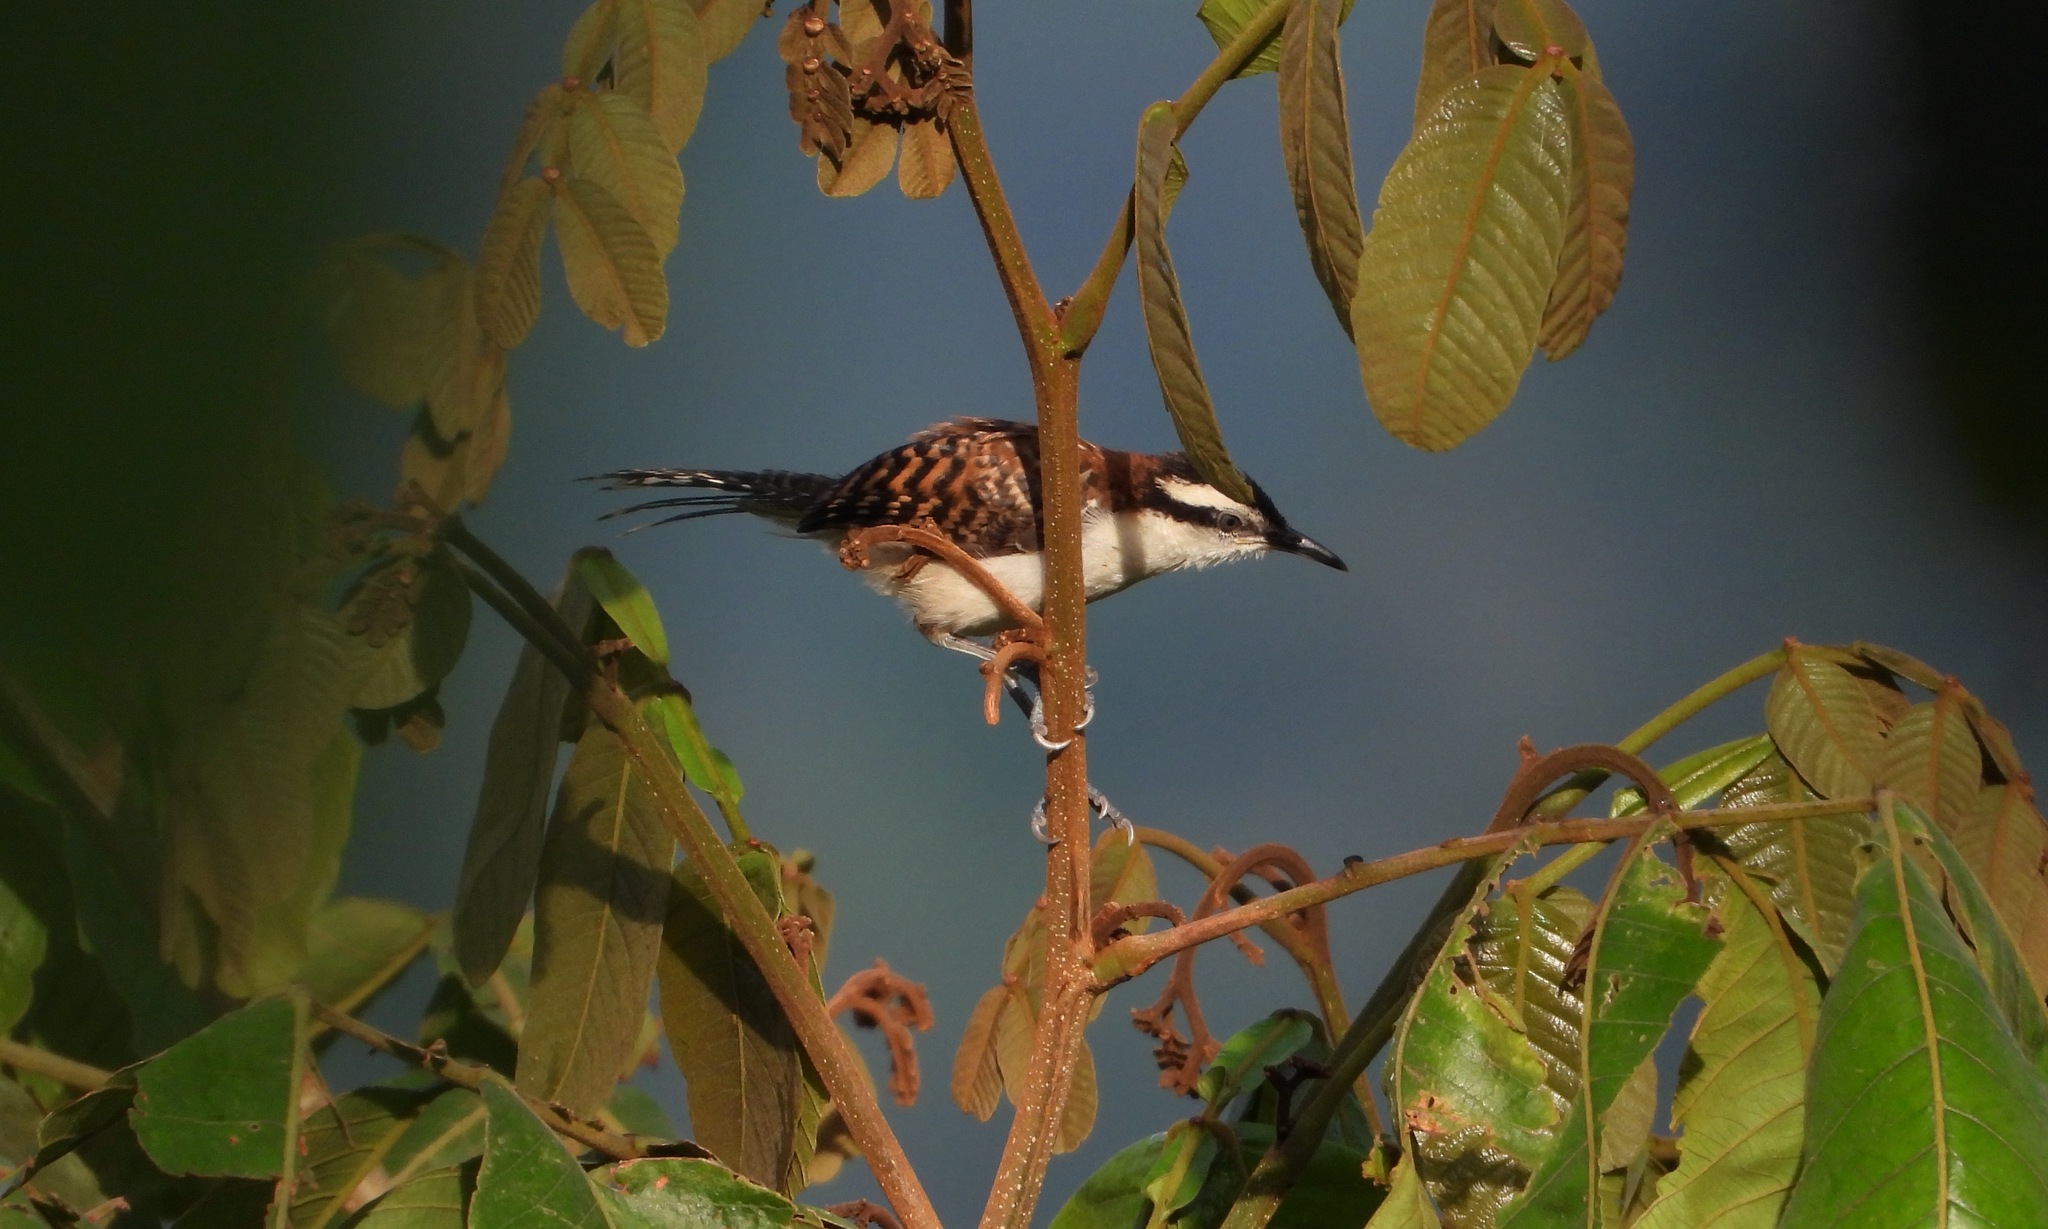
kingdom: Animalia
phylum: Chordata
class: Aves
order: Passeriformes
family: Troglodytidae
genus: Campylorhynchus
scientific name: Campylorhynchus rufinucha
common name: Rufous-naped wren
